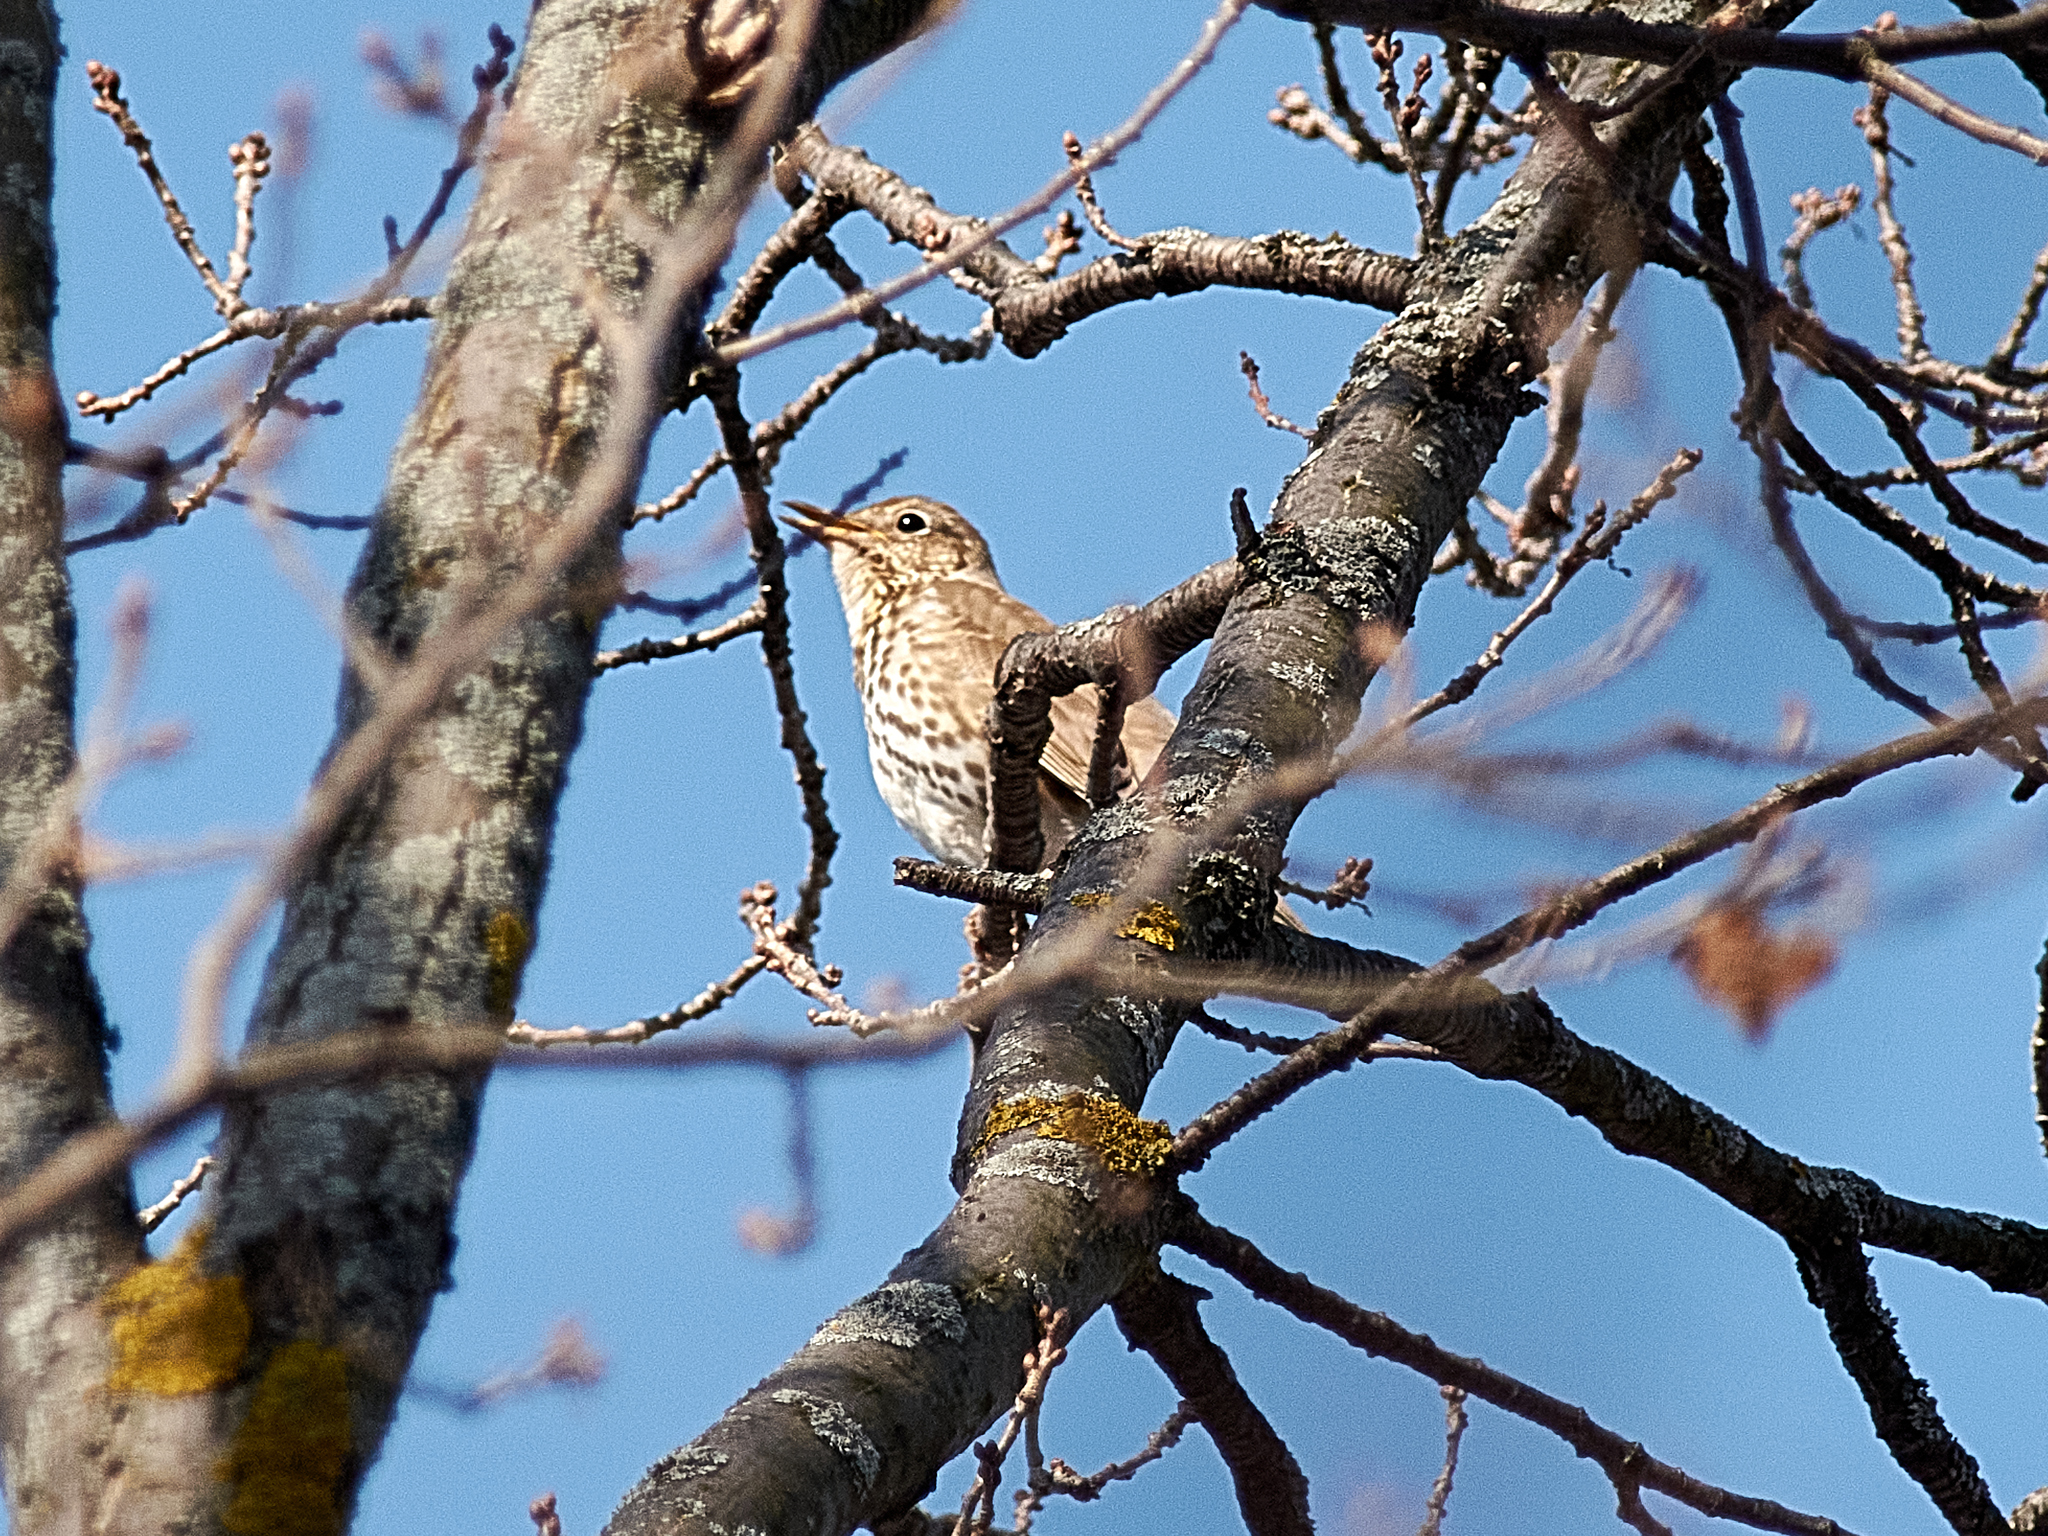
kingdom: Animalia
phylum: Chordata
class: Aves
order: Passeriformes
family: Turdidae
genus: Turdus
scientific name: Turdus philomelos
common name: Song thrush
